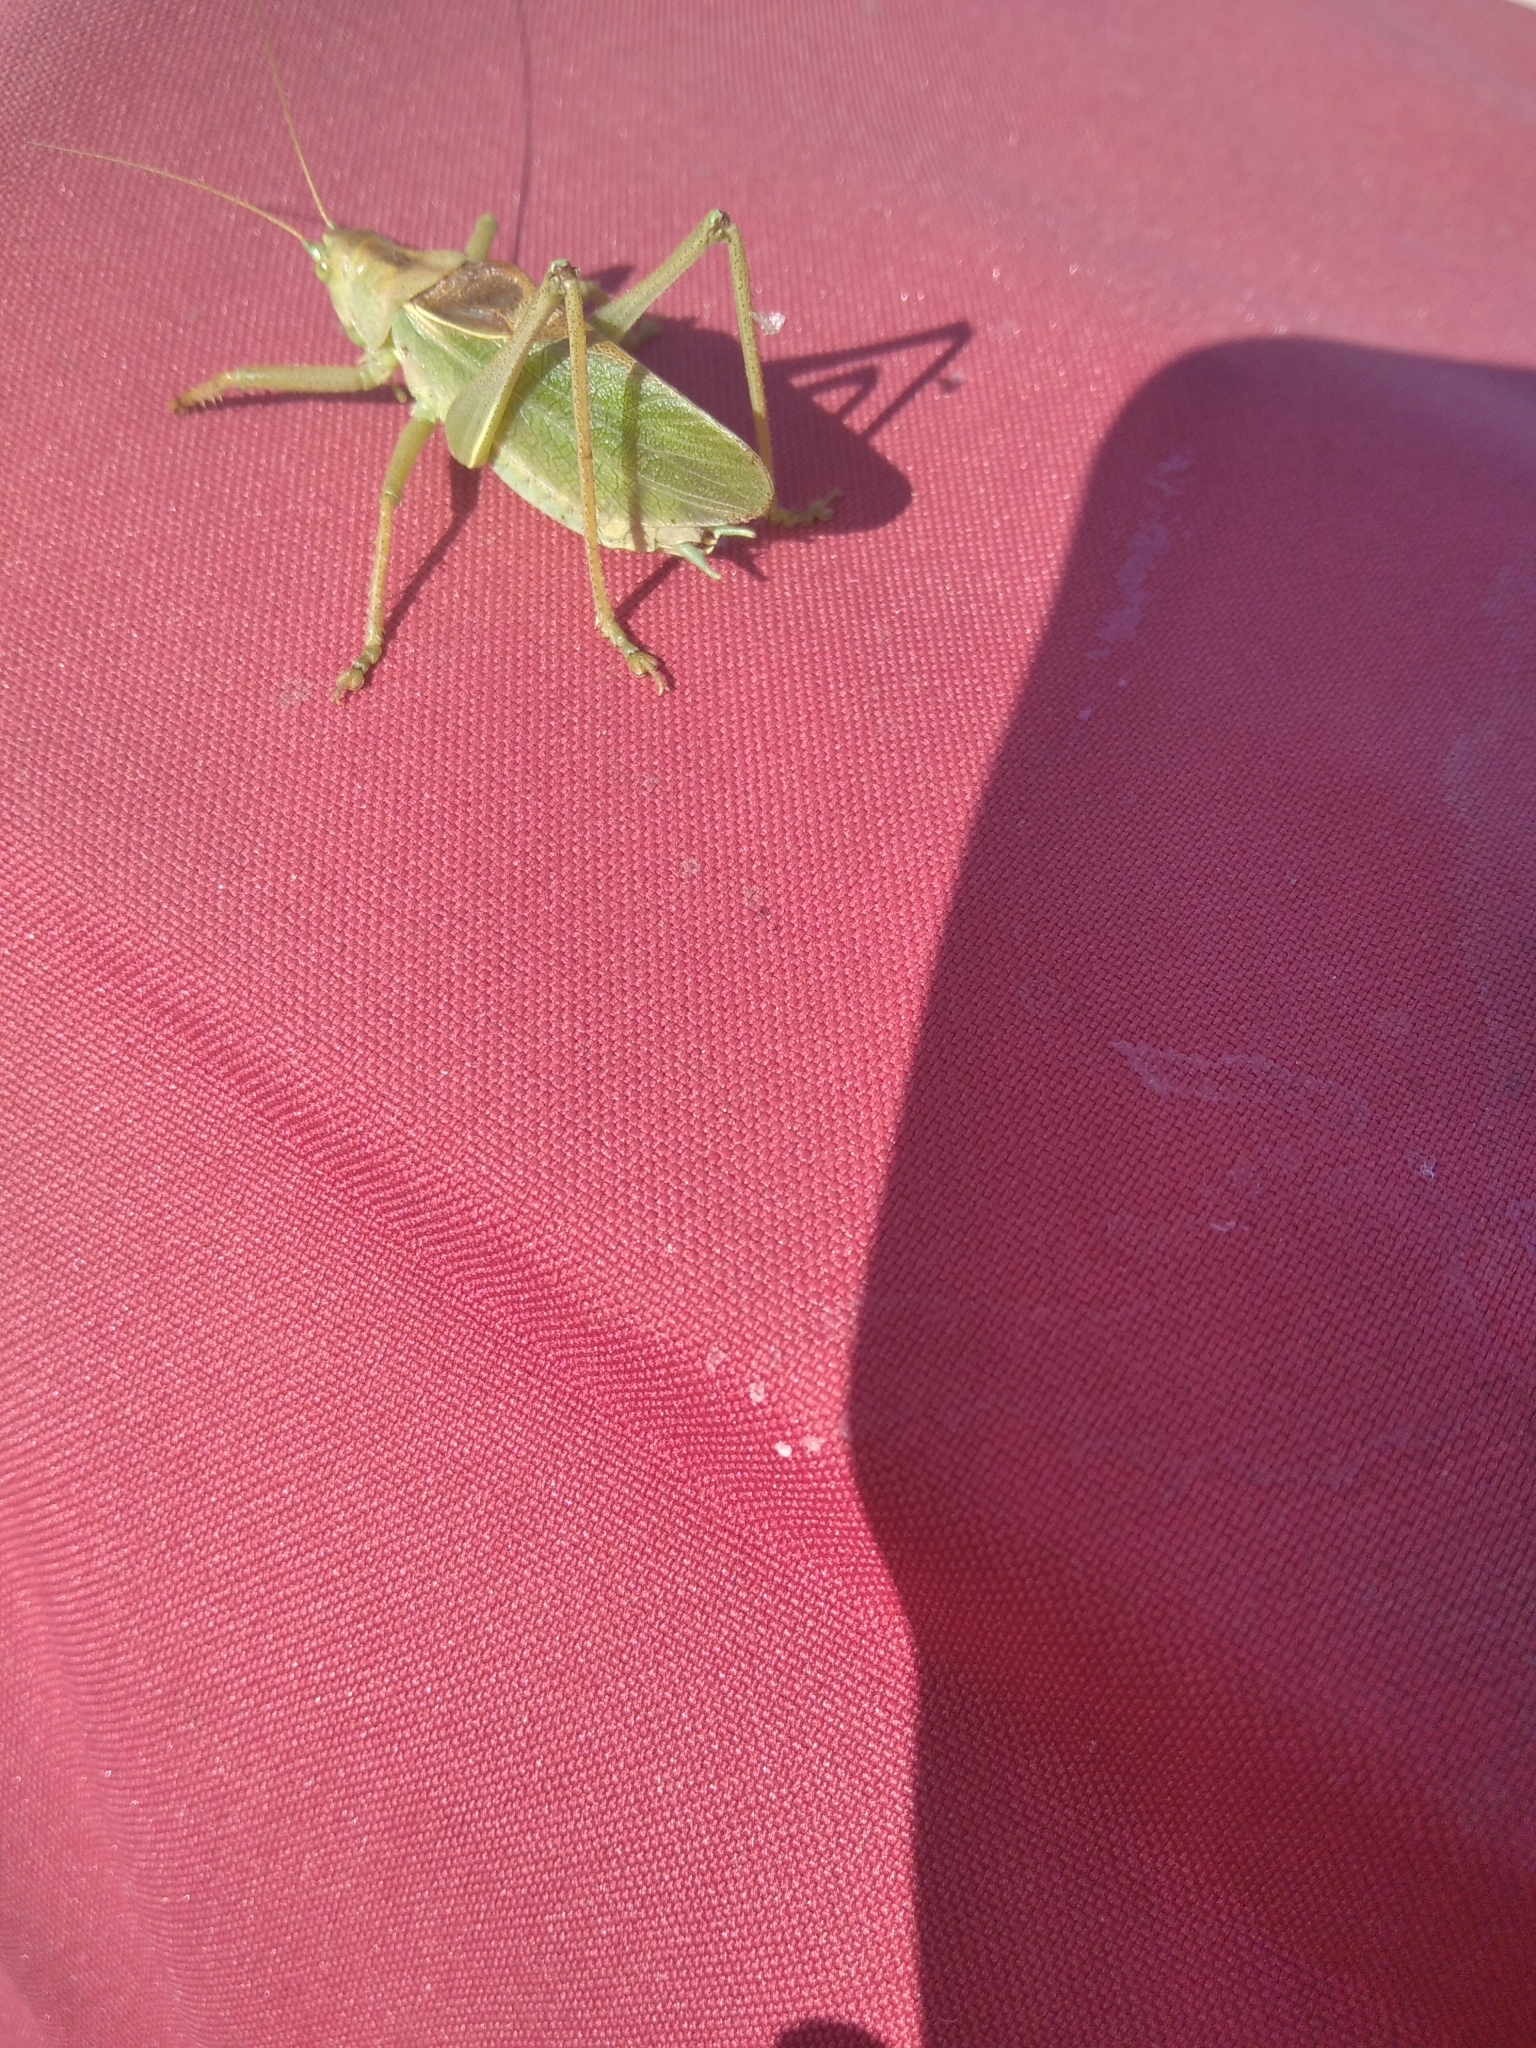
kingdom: Animalia
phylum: Arthropoda
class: Insecta
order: Orthoptera
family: Tettigoniidae
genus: Tettigonia
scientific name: Tettigonia cantans
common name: Upland green bush-cricket
